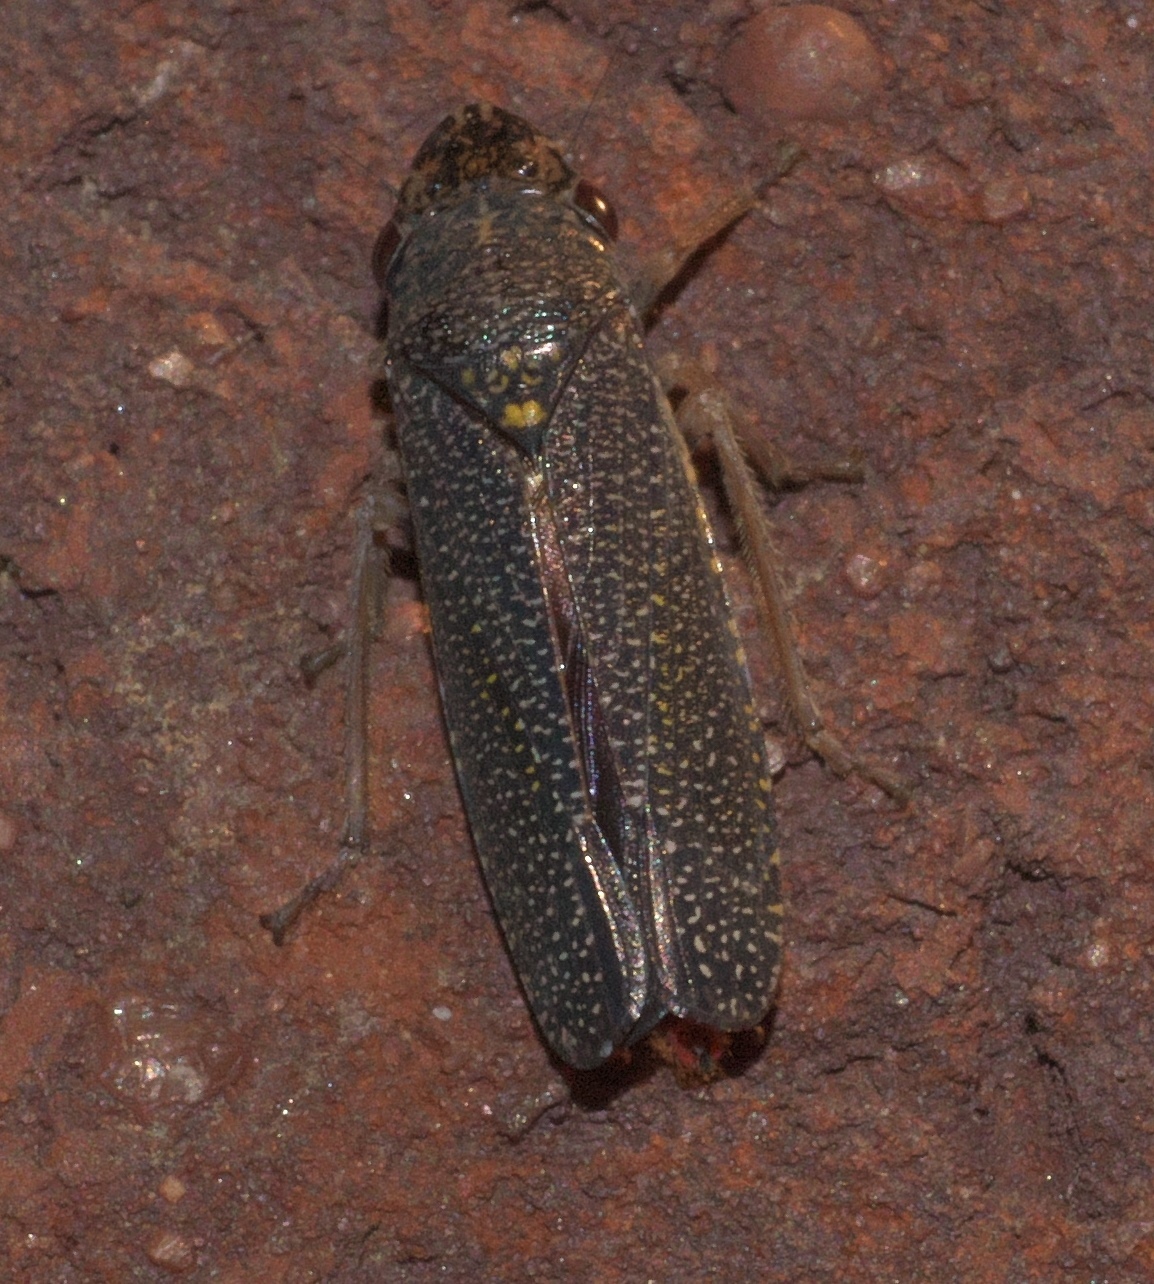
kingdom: Animalia
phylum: Arthropoda
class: Insecta
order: Hemiptera
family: Cicadellidae
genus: Paraulacizes
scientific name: Paraulacizes irrorata
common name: Speckled sharpshooter
